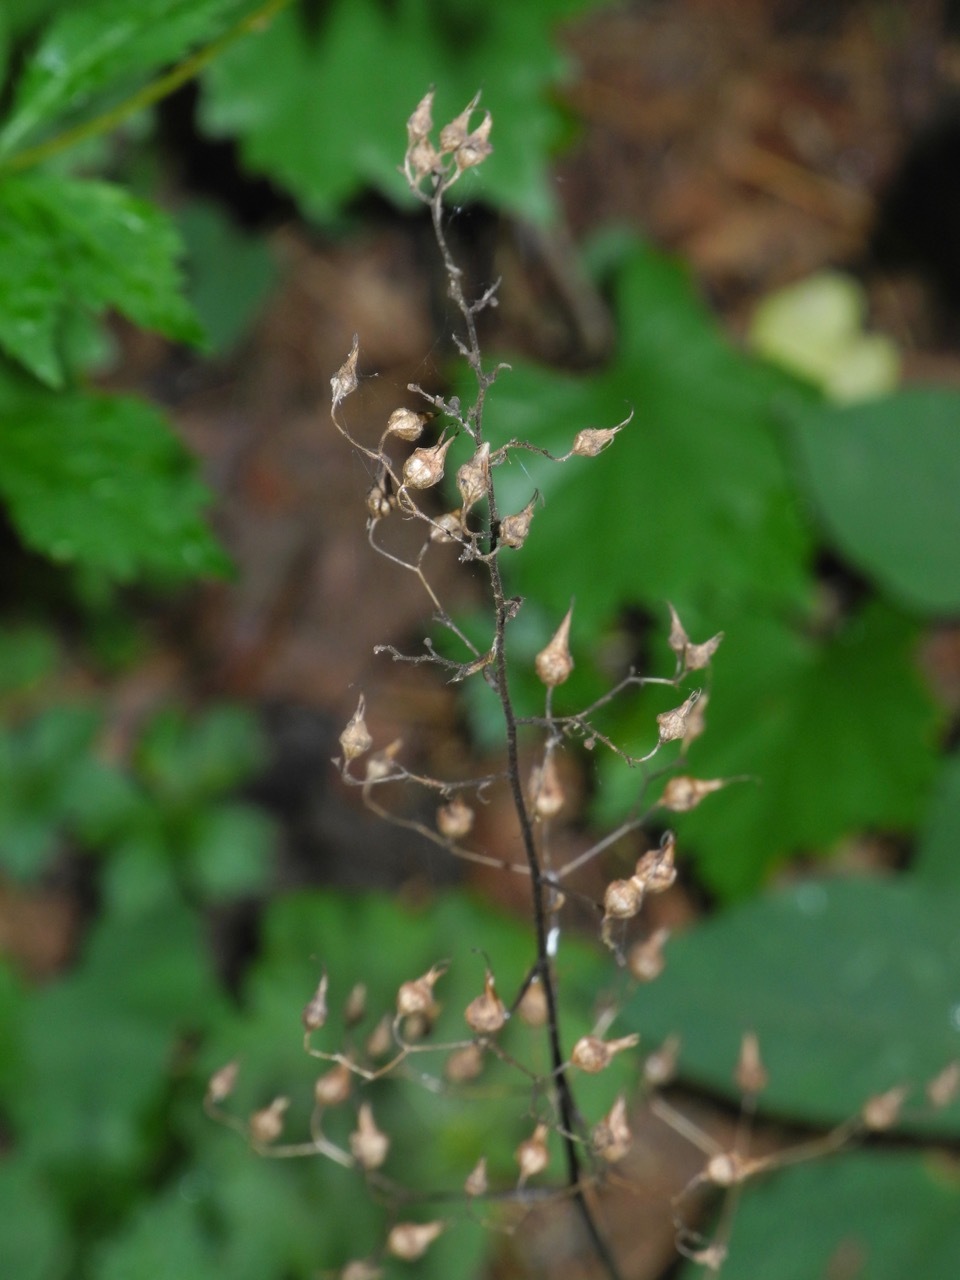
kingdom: Plantae
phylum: Tracheophyta
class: Magnoliopsida
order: Saxifragales
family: Saxifragaceae
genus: Heuchera
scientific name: Heuchera americana
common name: Alumroot
